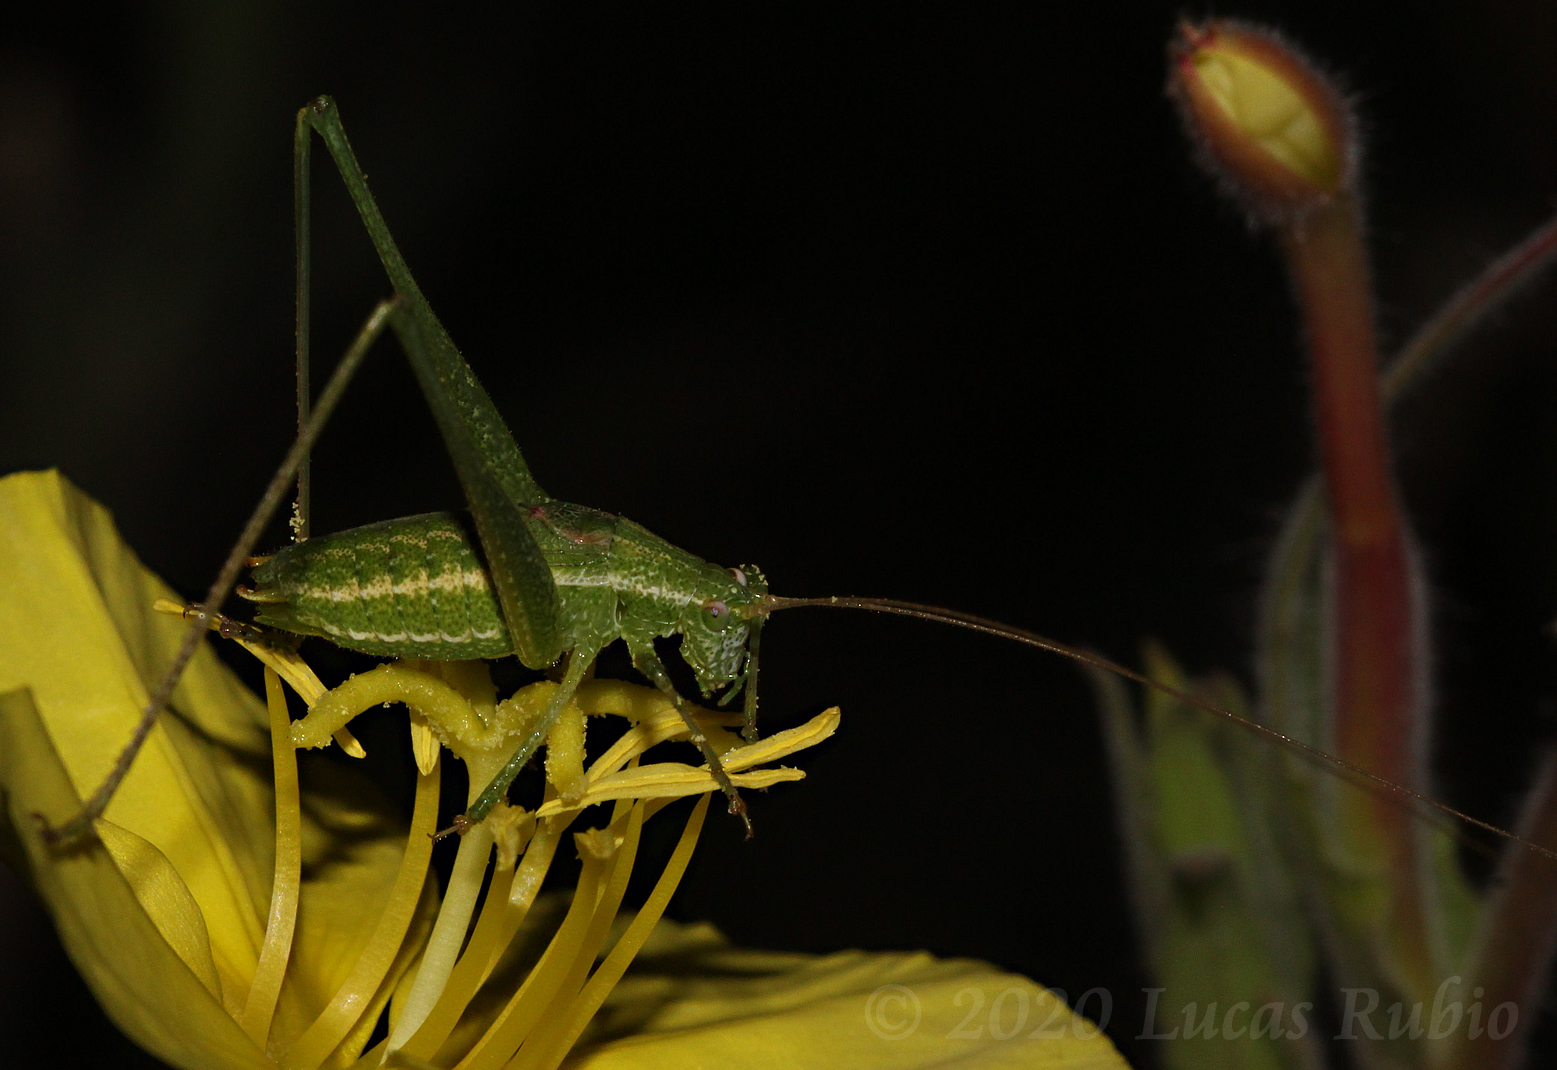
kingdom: Animalia
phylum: Arthropoda
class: Insecta
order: Orthoptera
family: Tettigoniidae
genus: Anisophya
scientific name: Anisophya punctinervis
